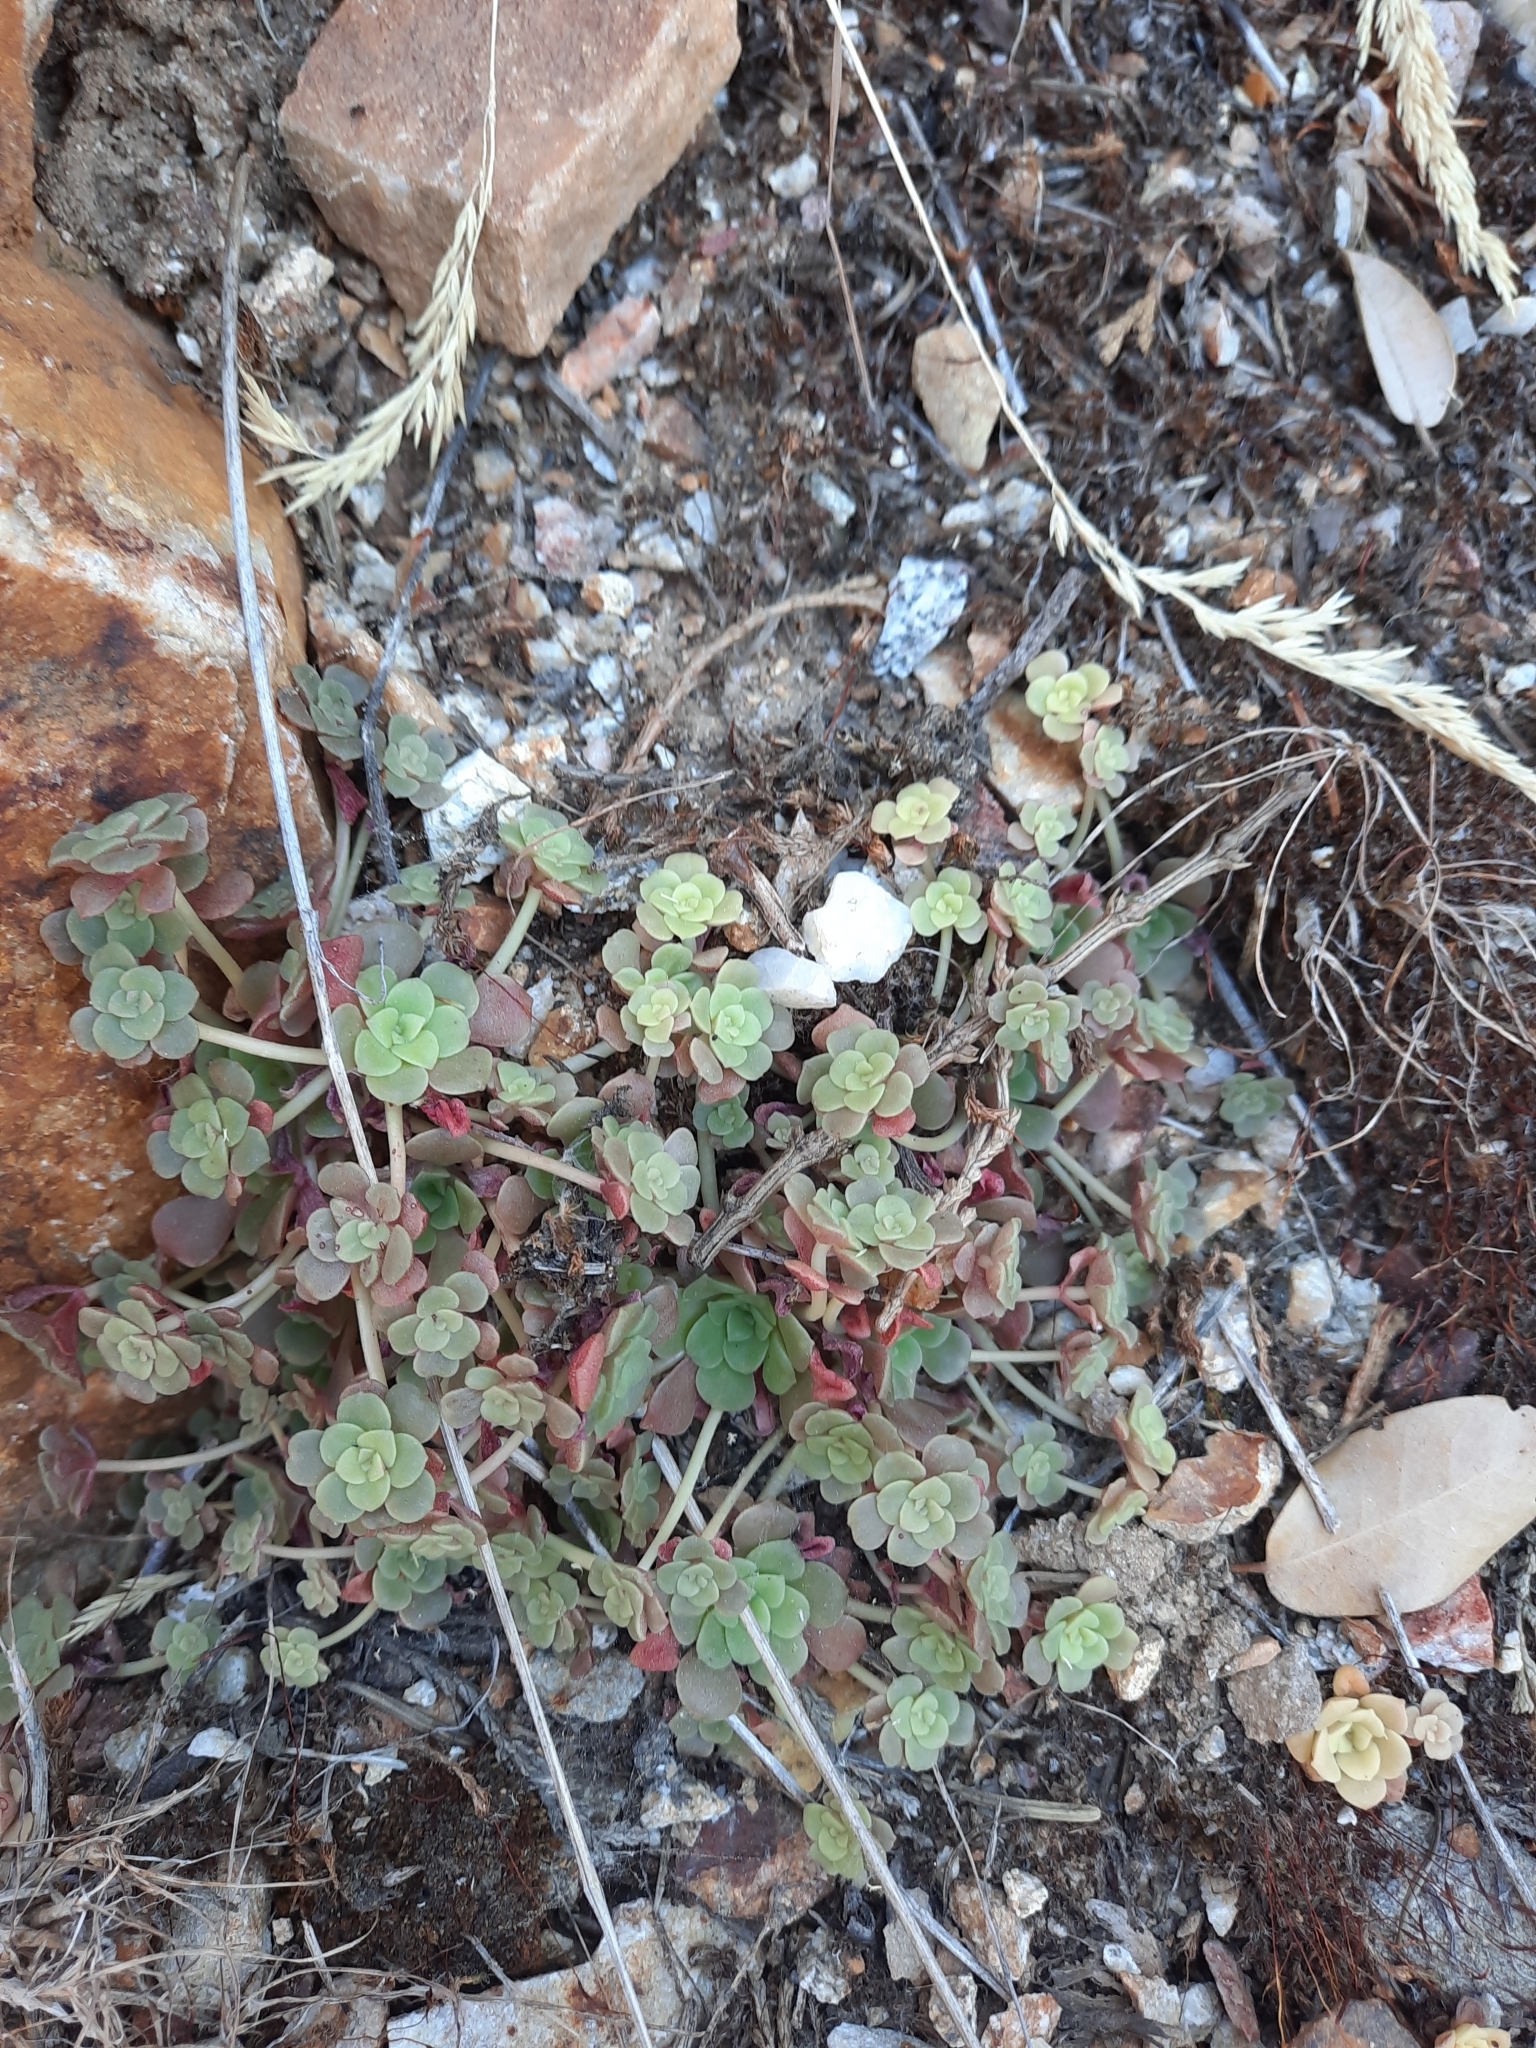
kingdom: Plantae
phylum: Tracheophyta
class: Magnoliopsida
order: Saxifragales
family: Crassulaceae
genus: Sedum
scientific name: Sedum spathulifolium
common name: Colorado stonecrop
